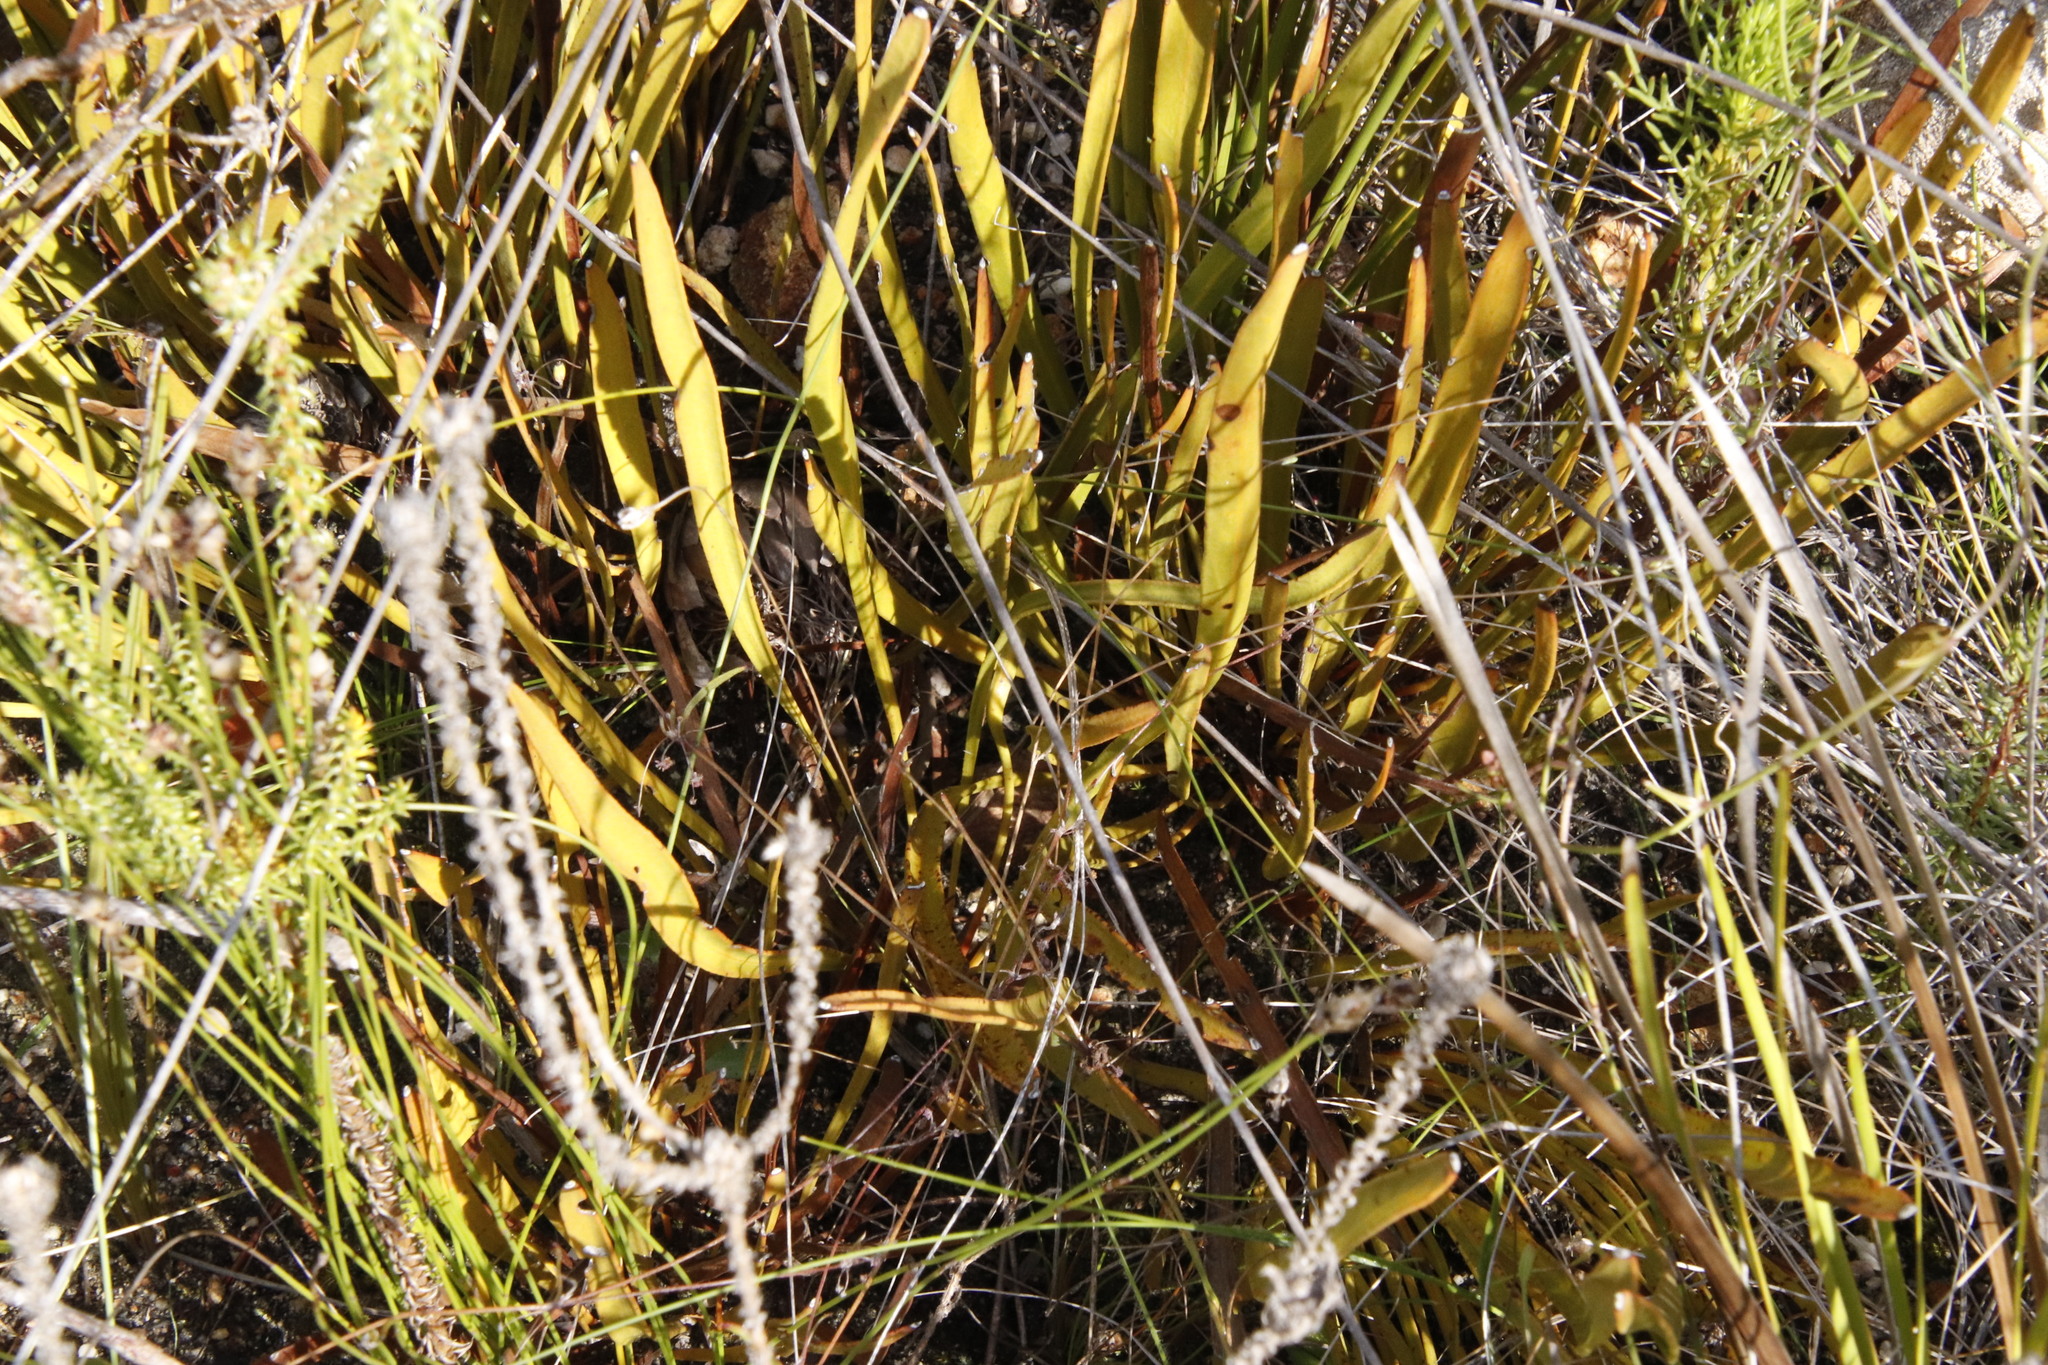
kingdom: Plantae
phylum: Tracheophyta
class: Magnoliopsida
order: Proteales
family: Proteaceae
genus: Protea
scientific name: Protea scabra
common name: Sandpaper-leaf sugarbush
